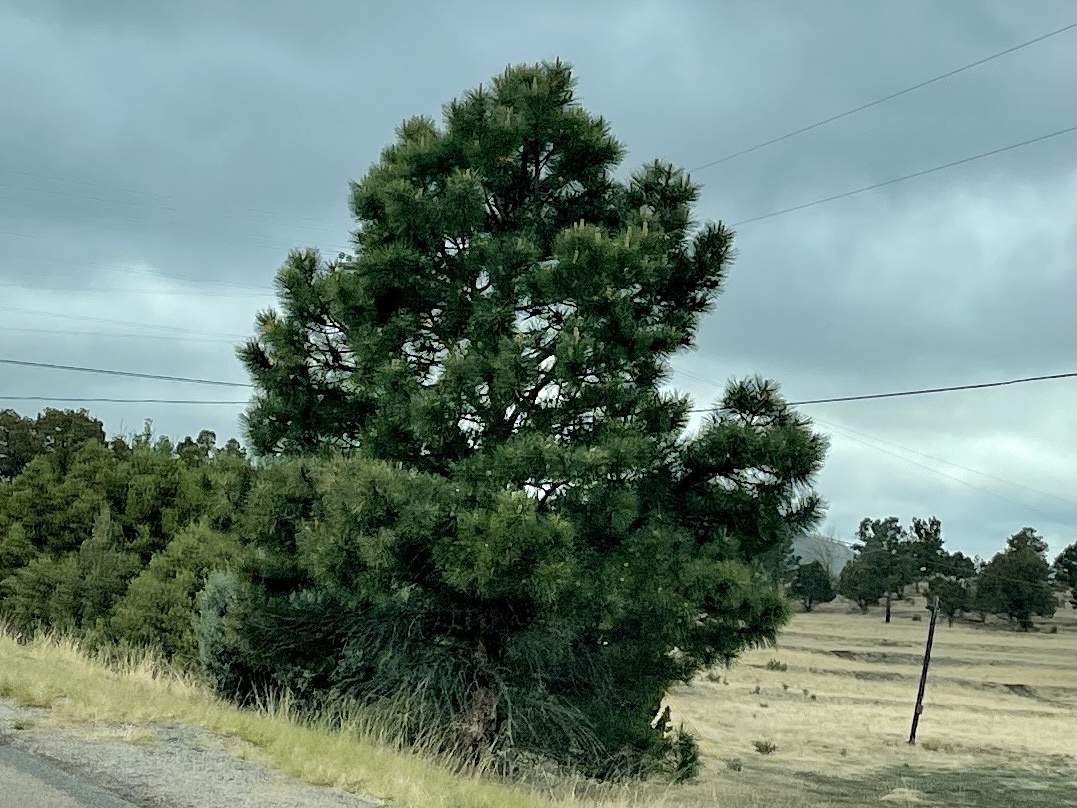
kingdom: Plantae
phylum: Tracheophyta
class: Pinopsida
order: Pinales
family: Pinaceae
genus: Pinus
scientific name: Pinus ponderosa
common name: Western yellow-pine
